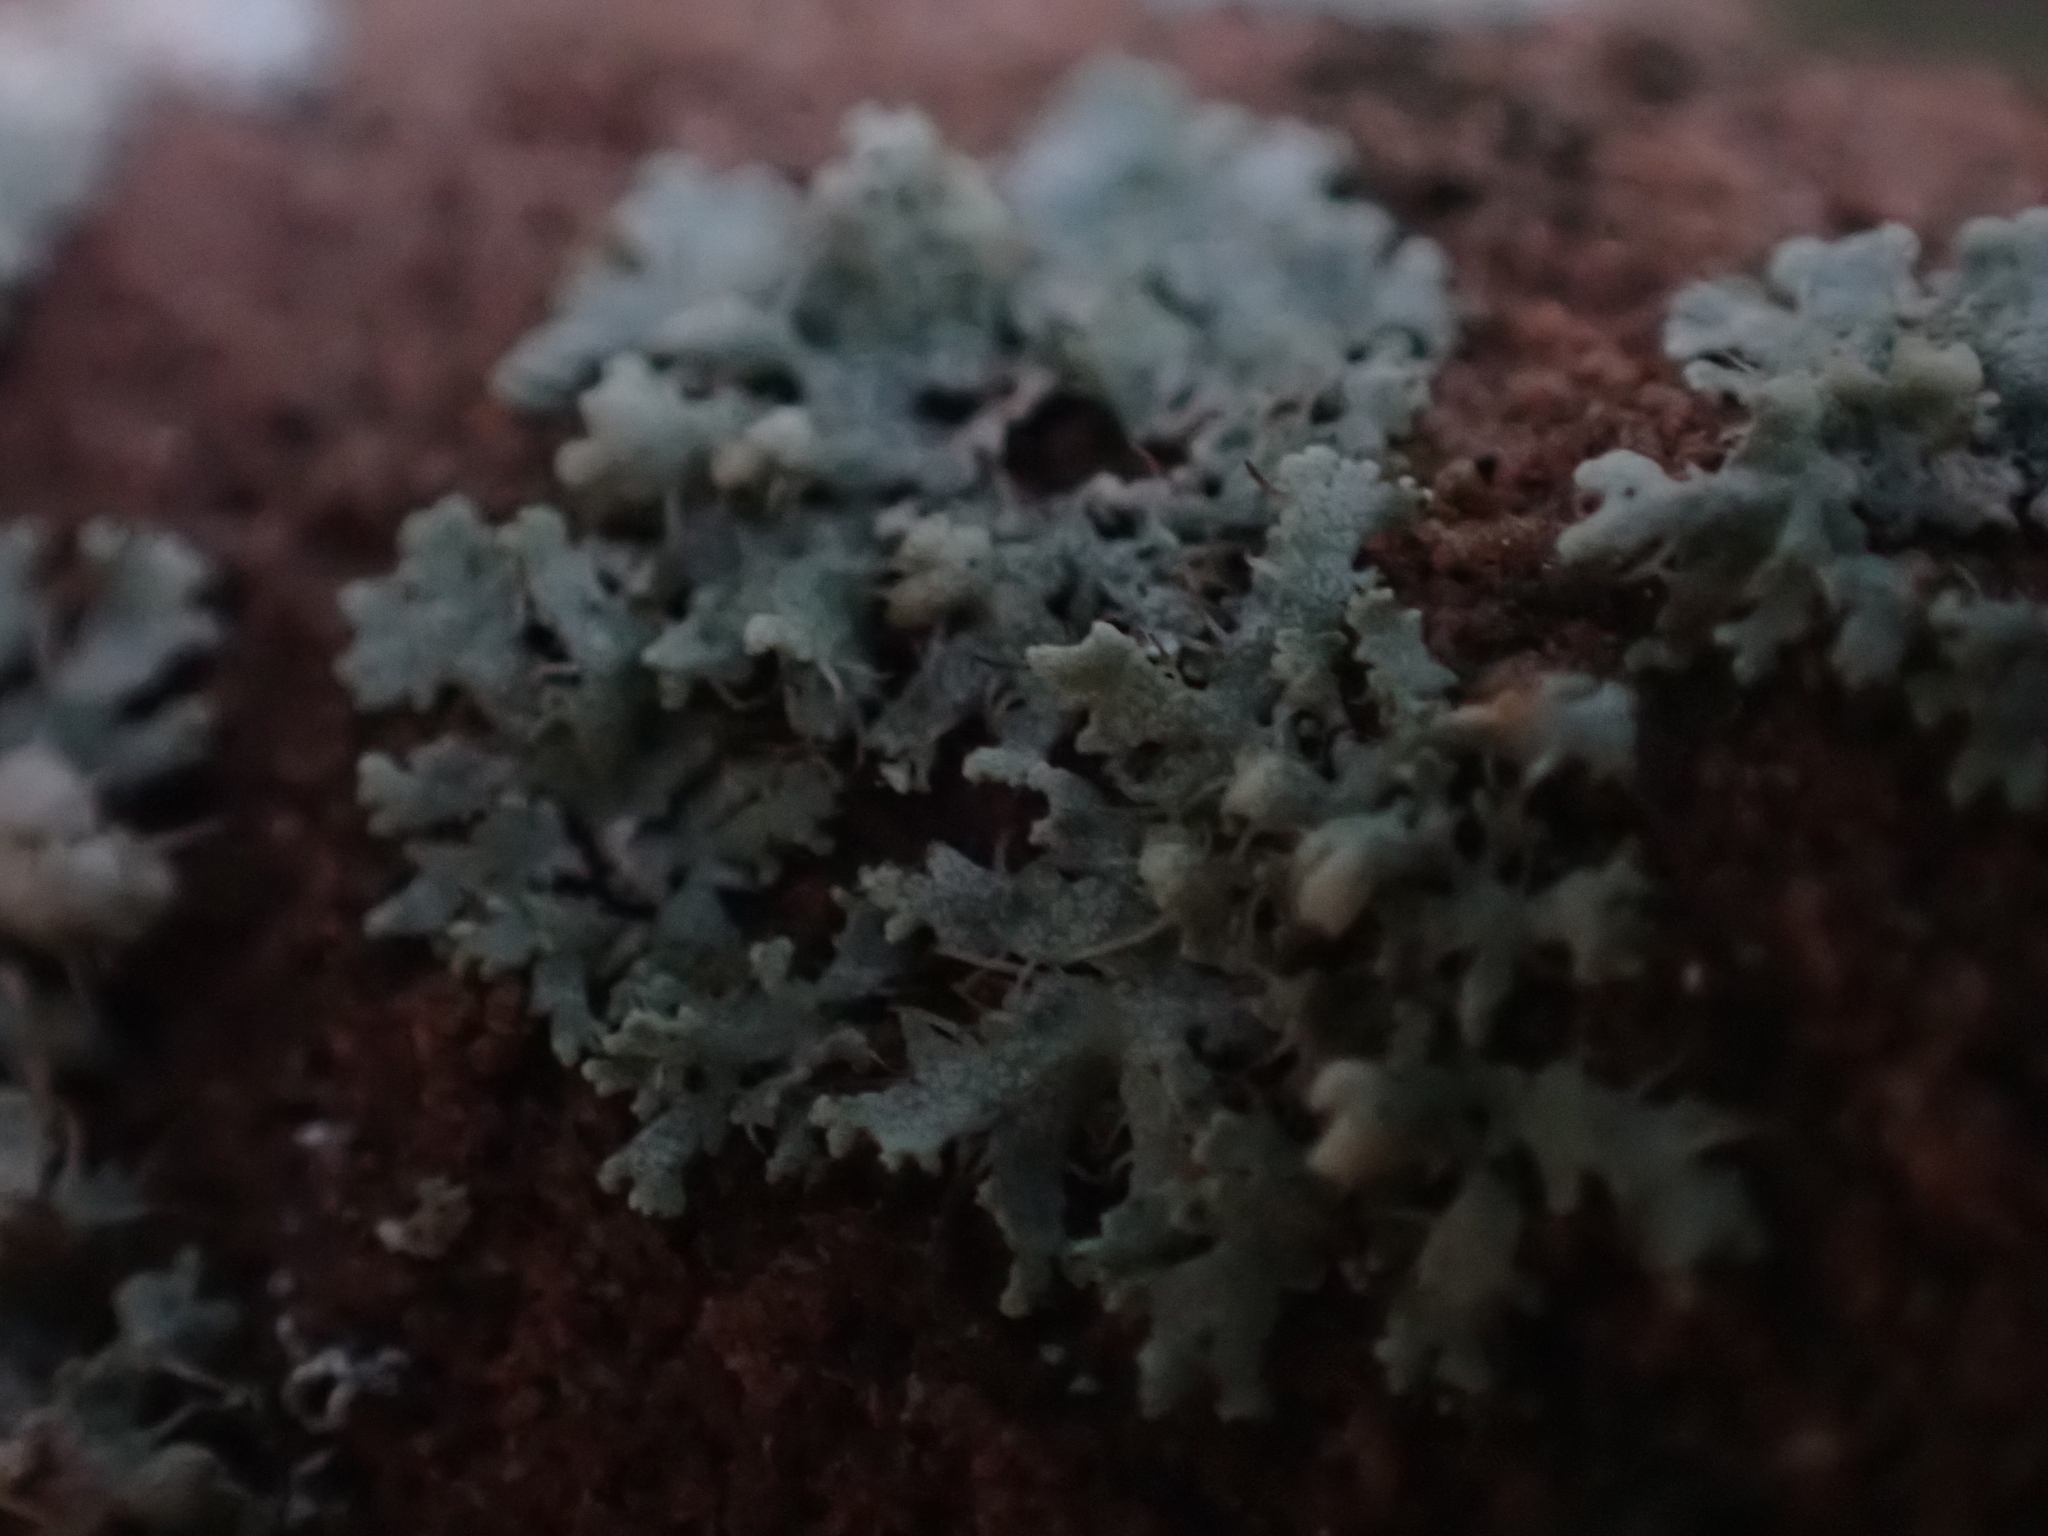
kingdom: Fungi
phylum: Ascomycota
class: Lecanoromycetes
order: Caliciales
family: Physciaceae
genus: Physcia
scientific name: Physcia adscendens
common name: Hooded rosette lichen
